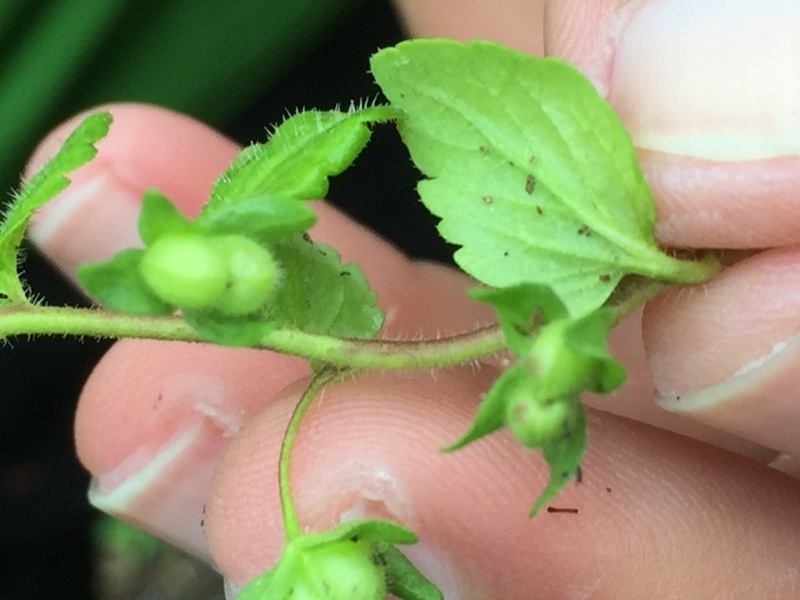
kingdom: Plantae
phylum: Tracheophyta
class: Magnoliopsida
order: Lamiales
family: Plantaginaceae
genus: Veronica
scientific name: Veronica agrestis
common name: Green field-speedwell
